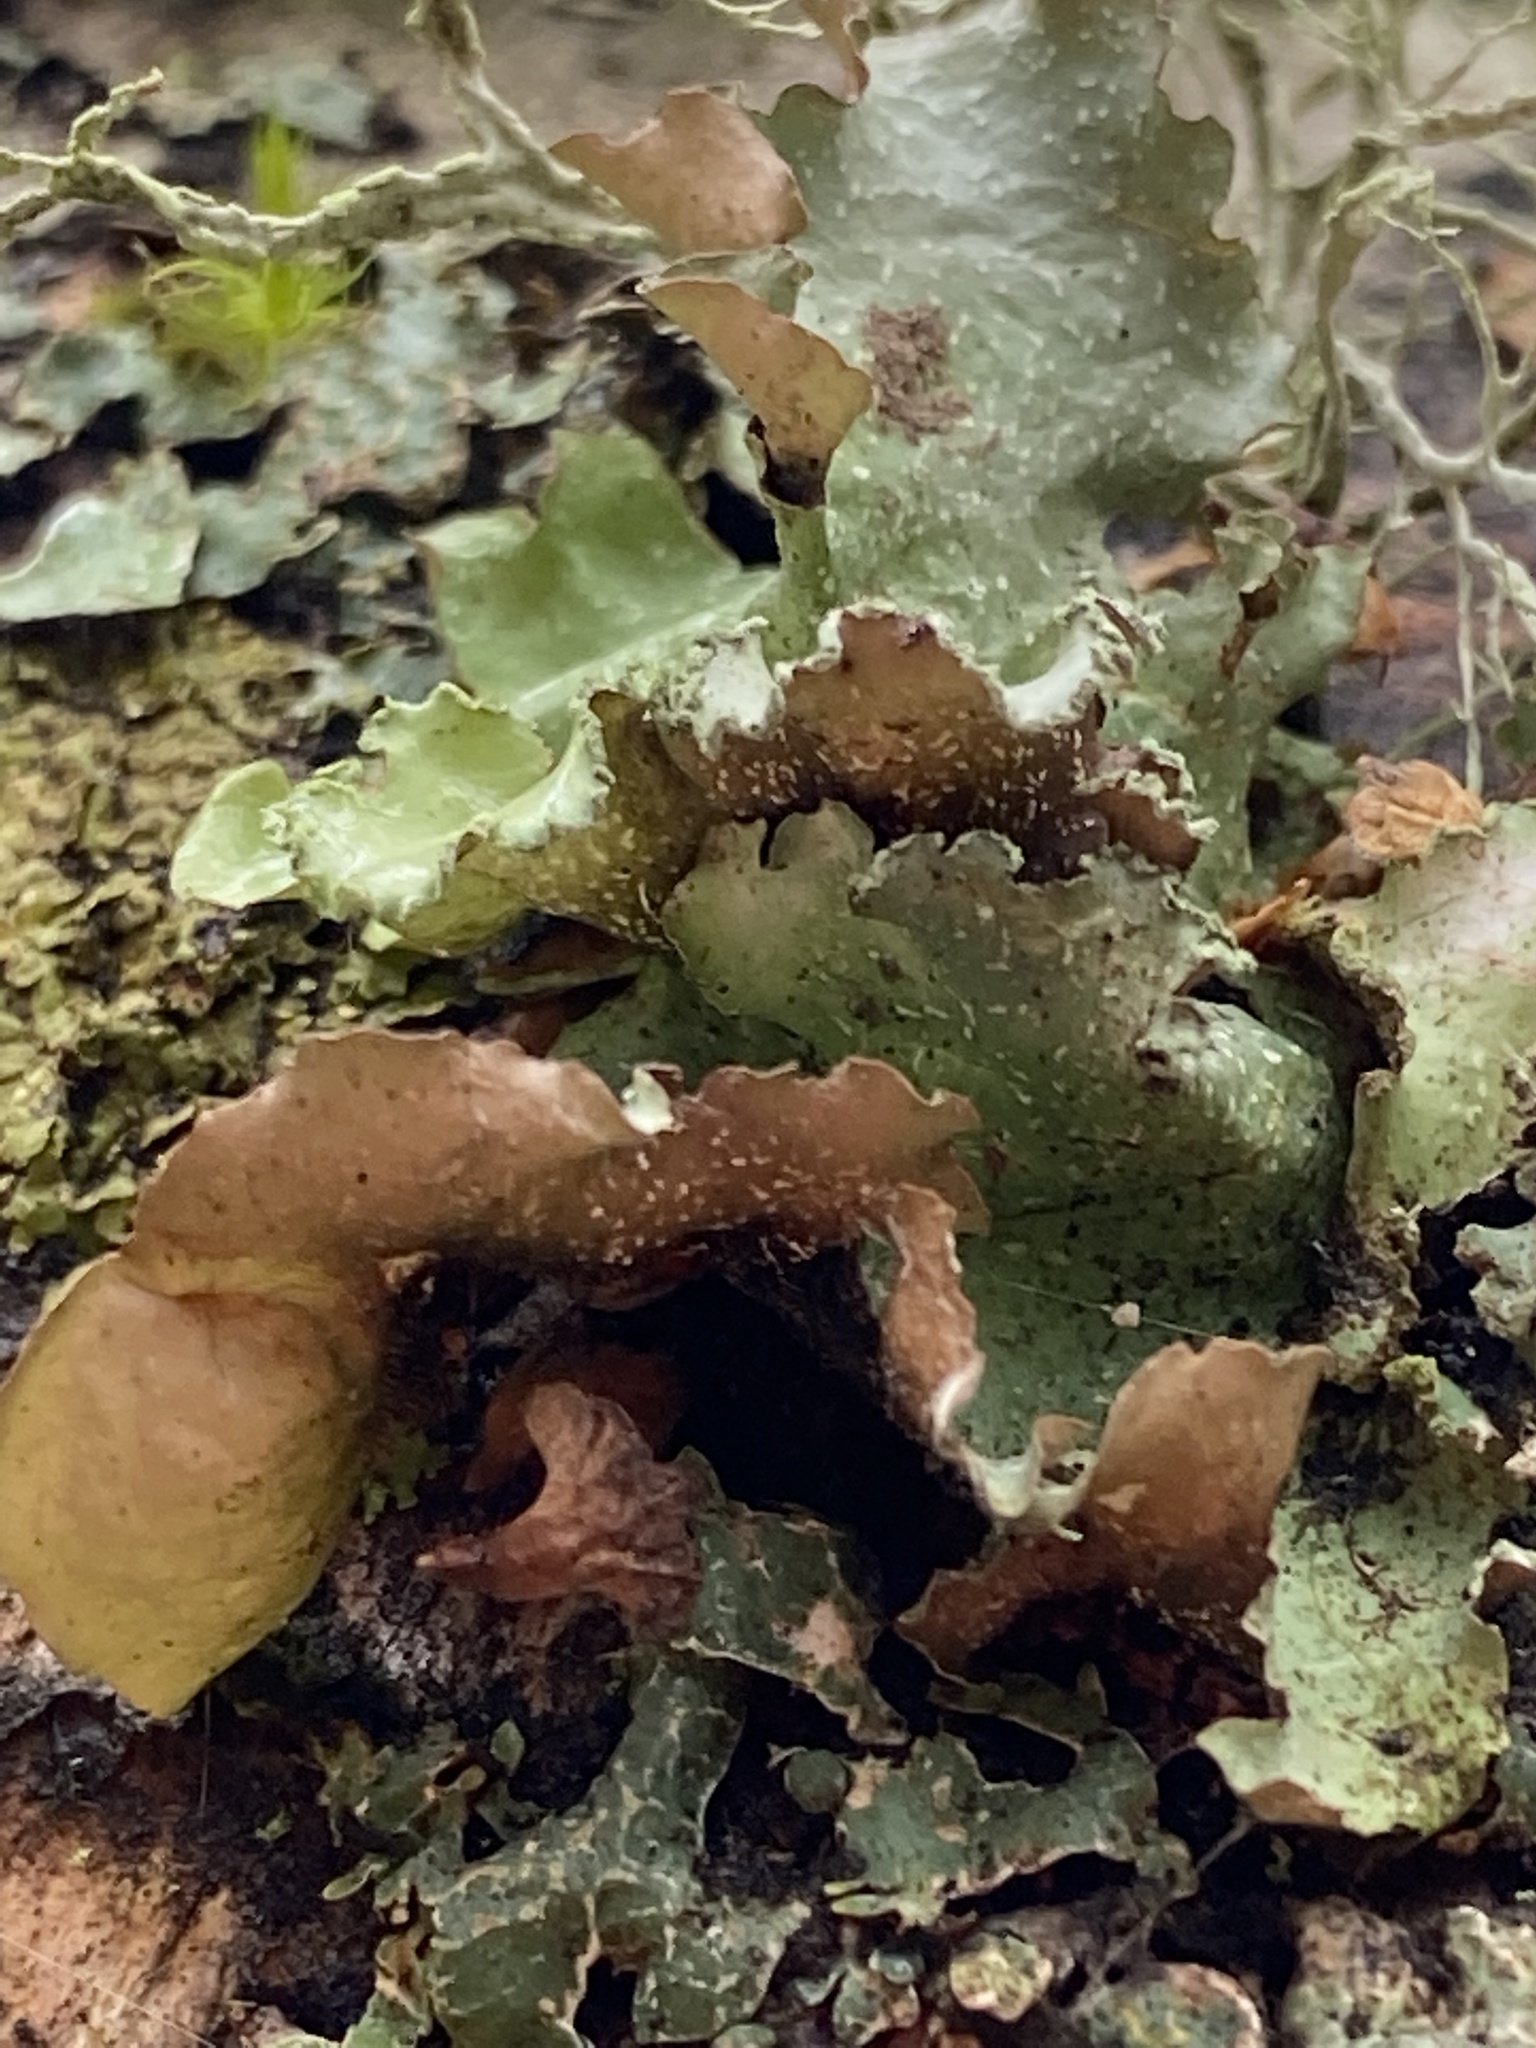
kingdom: Fungi
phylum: Ascomycota
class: Lecanoromycetes
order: Lecanorales
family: Parmeliaceae
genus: Cetrelia
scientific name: Cetrelia cetrarioides
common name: Speckled iceland lichen
